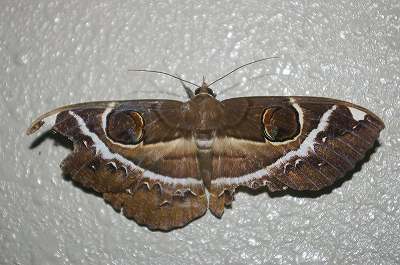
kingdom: Animalia
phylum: Arthropoda
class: Insecta
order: Lepidoptera
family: Erebidae
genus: Erebus
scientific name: Erebus ephesperis
